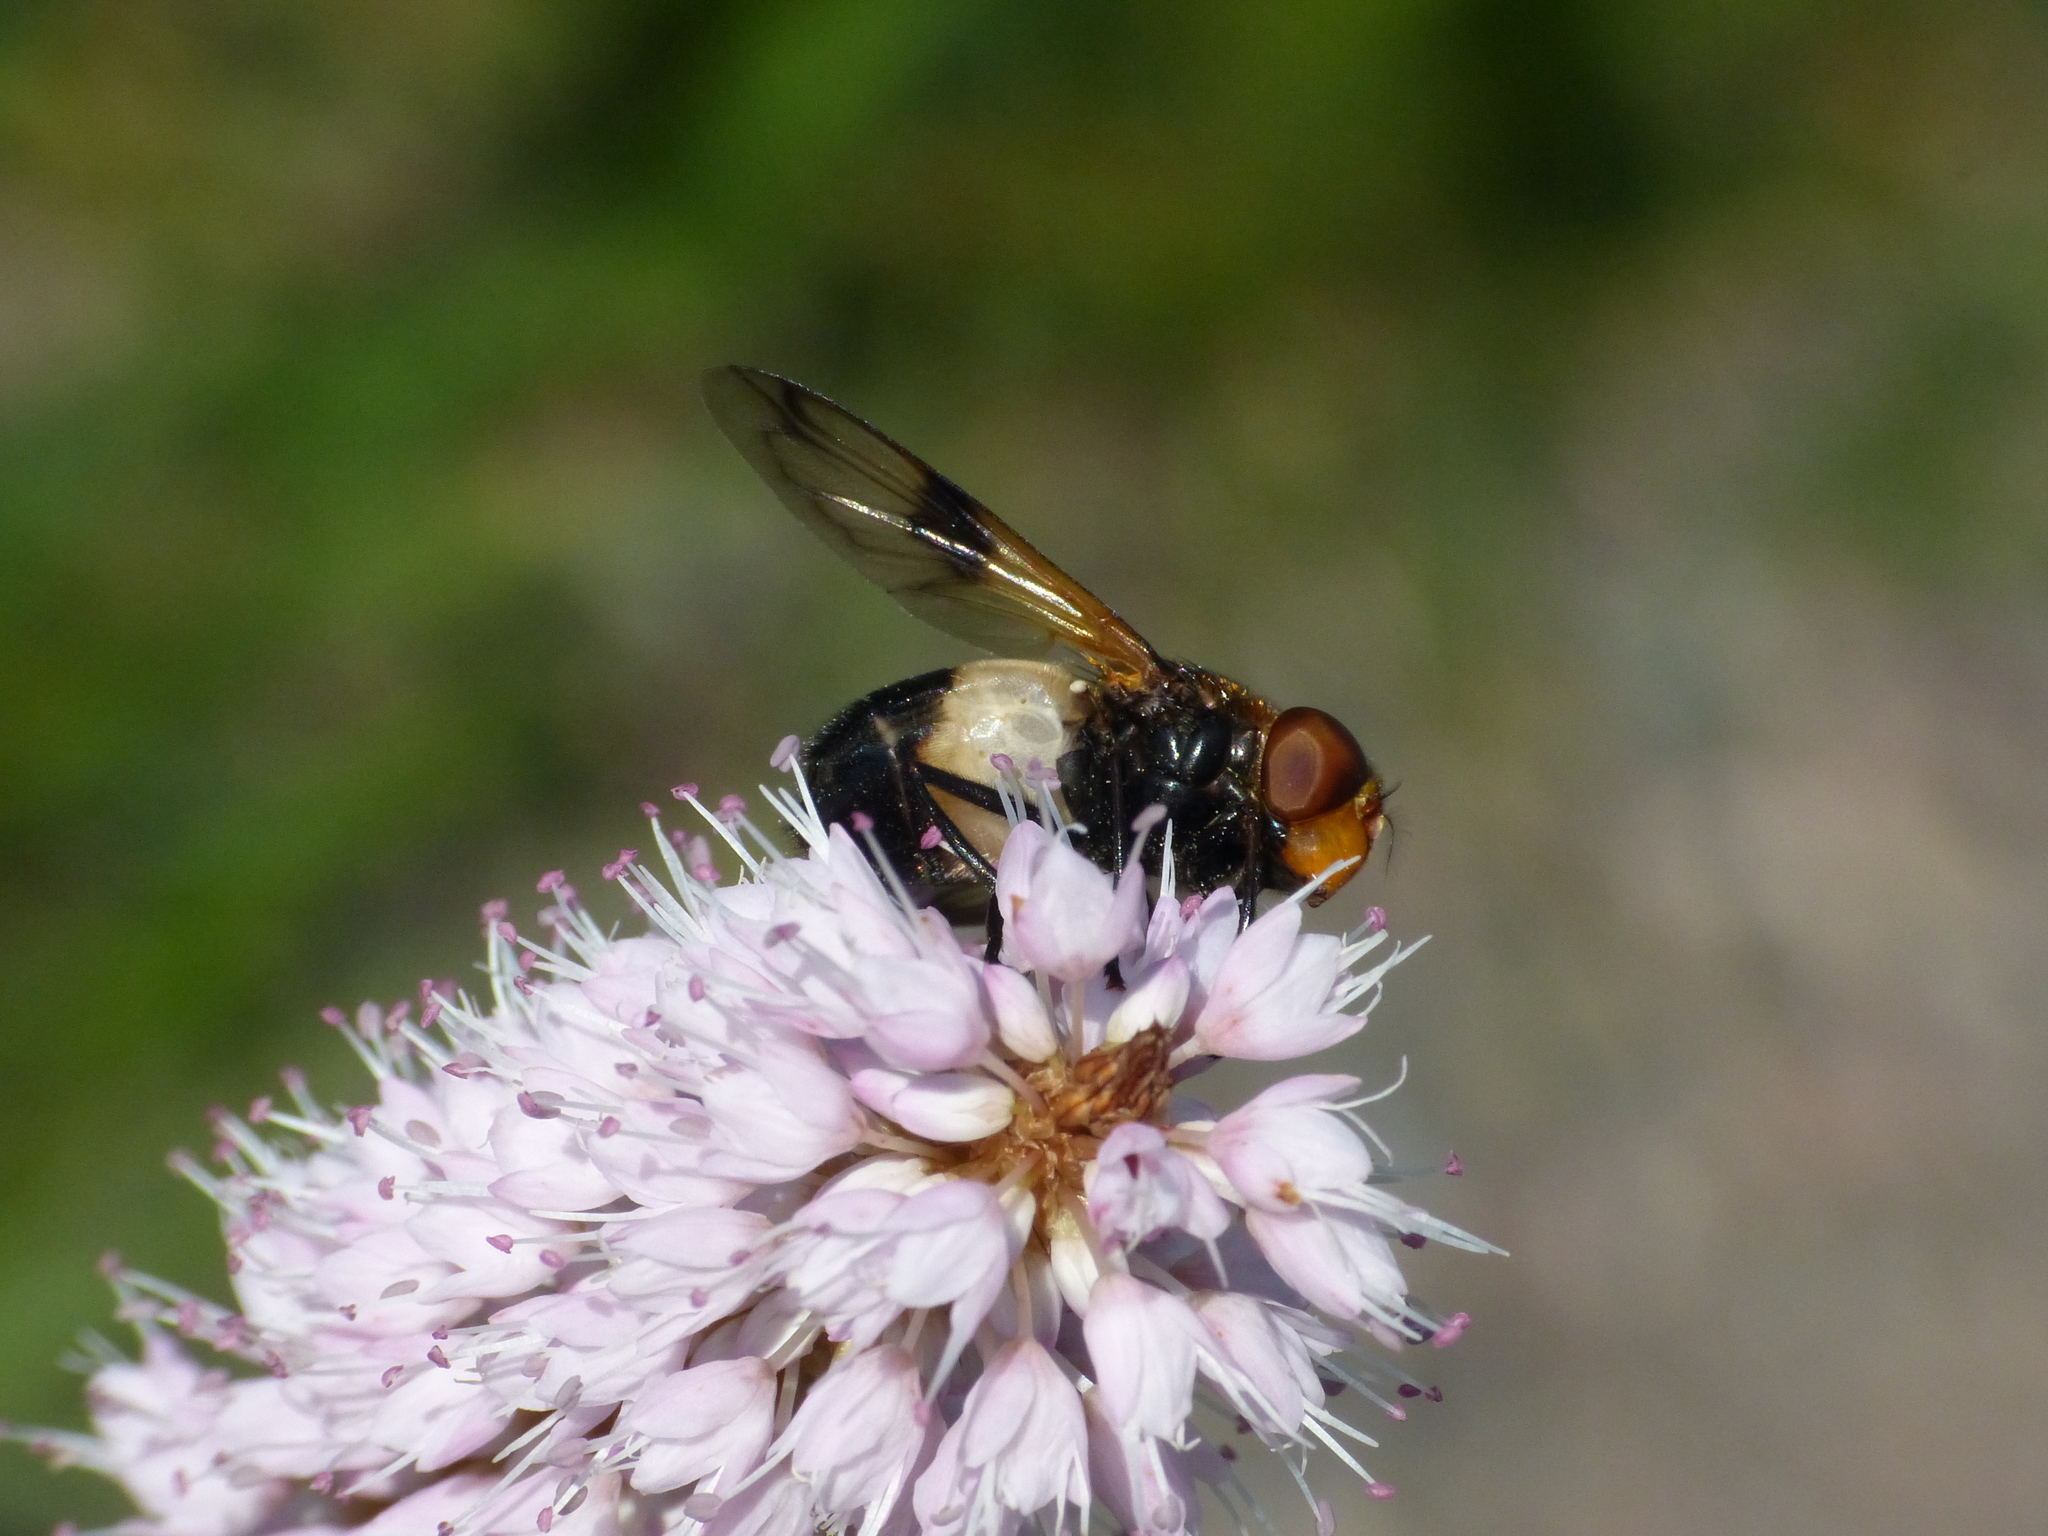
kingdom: Animalia
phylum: Arthropoda
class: Insecta
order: Diptera
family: Syrphidae
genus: Volucella
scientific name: Volucella pellucens
